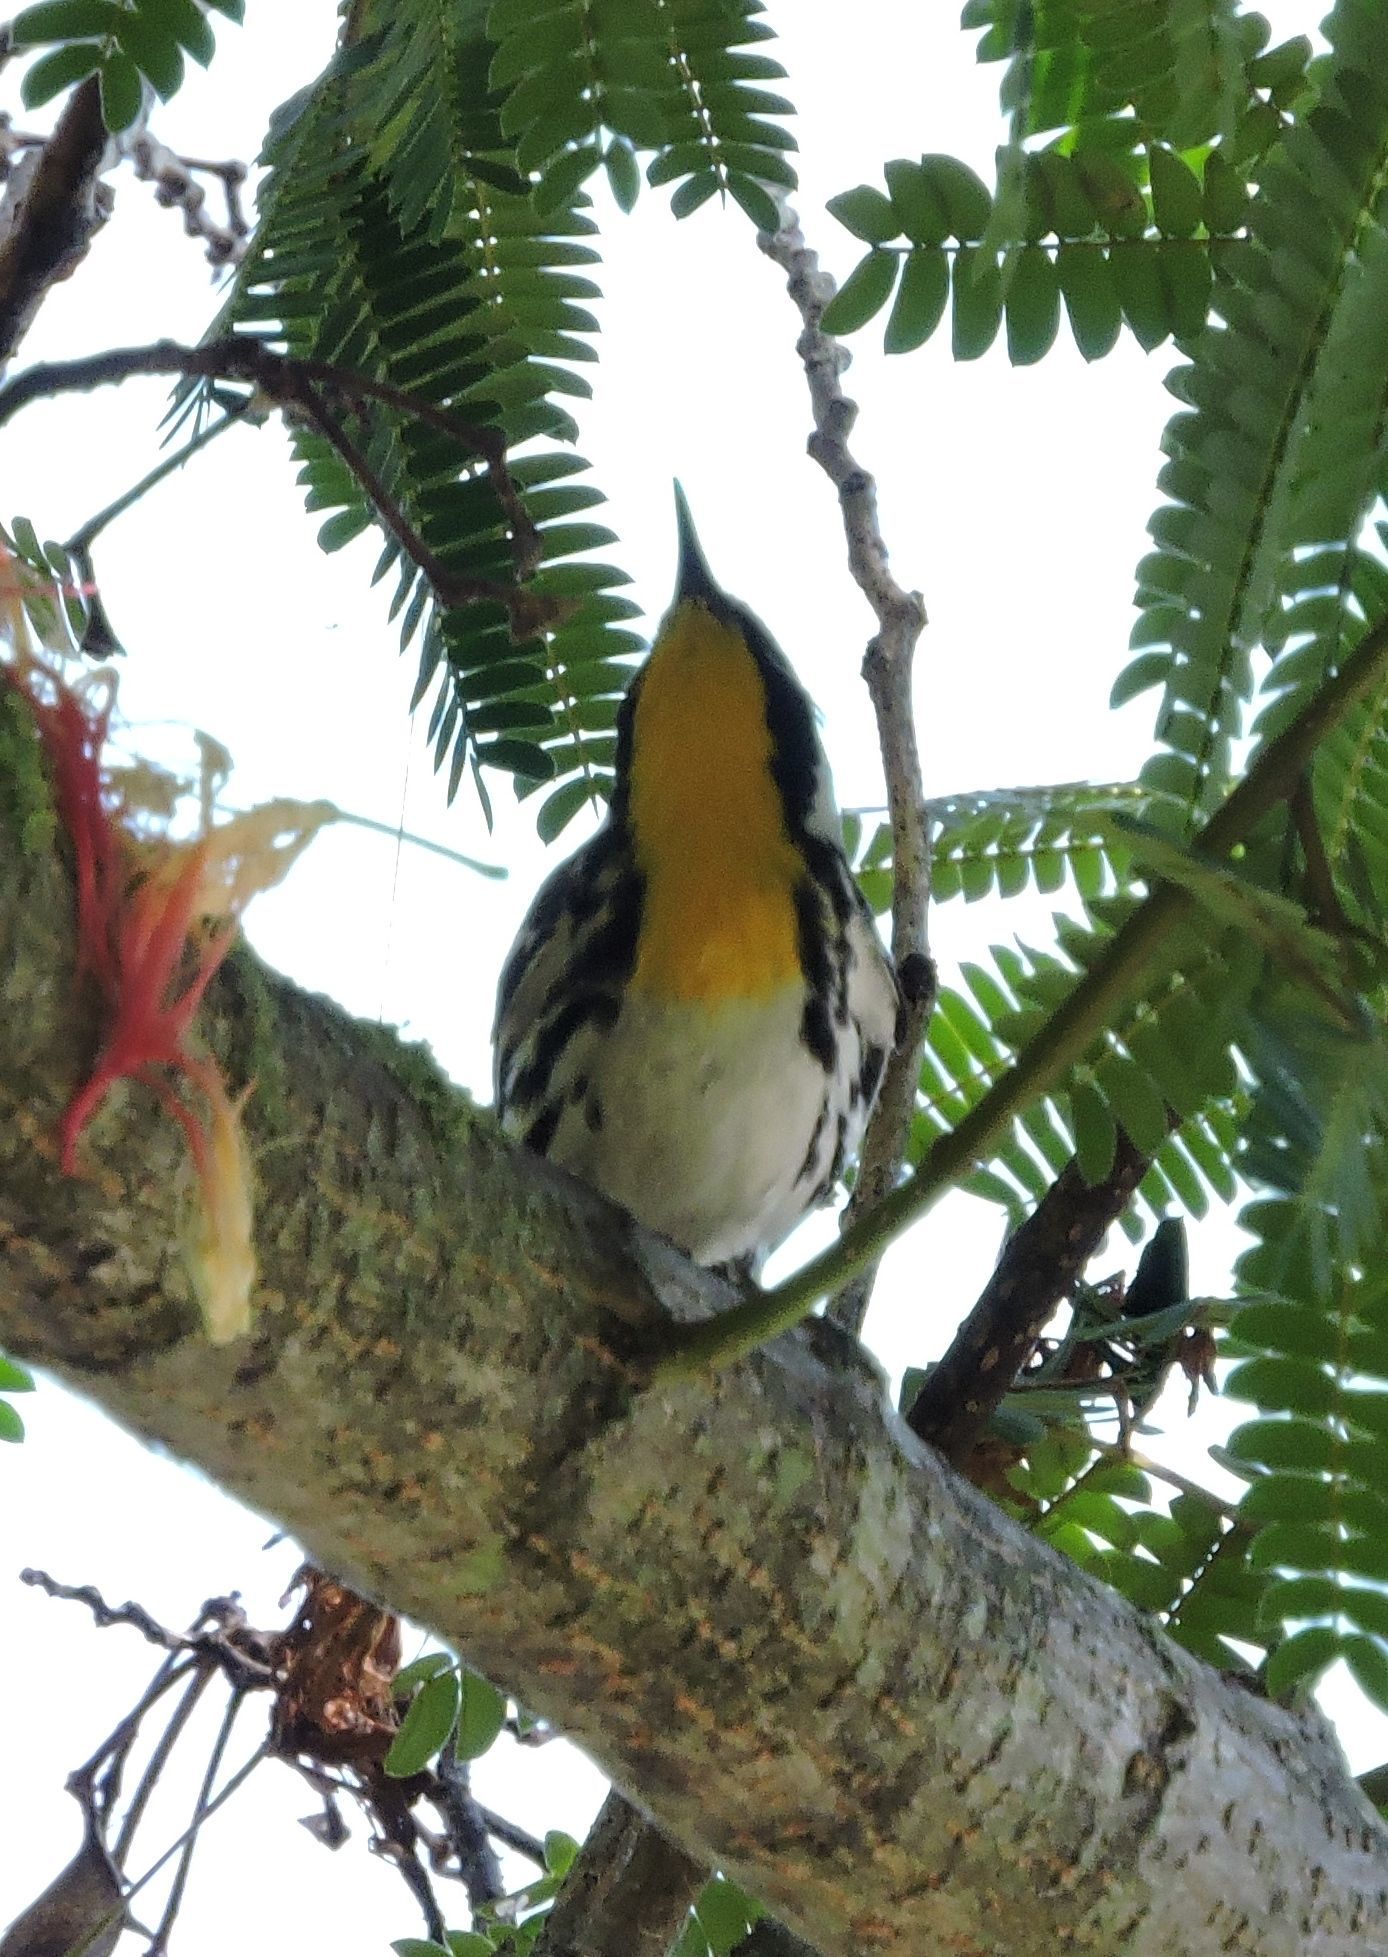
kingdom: Animalia
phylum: Chordata
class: Aves
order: Passeriformes
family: Parulidae
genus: Setophaga
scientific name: Setophaga dominica
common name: Yellow-throated warbler
